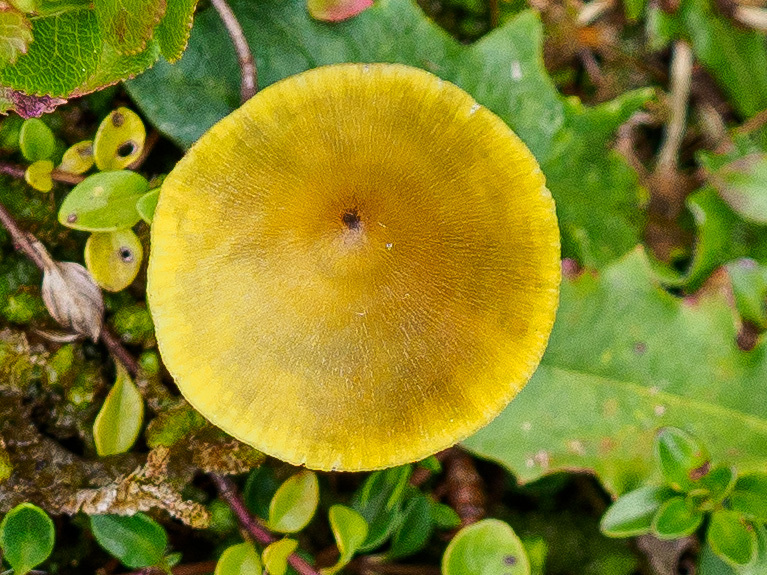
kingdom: Fungi
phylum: Basidiomycota
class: Agaricomycetes
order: Agaricales
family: Hygrophoraceae
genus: Hygrocybe
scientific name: Hygrocybe conica
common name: Blackening wax-cap
